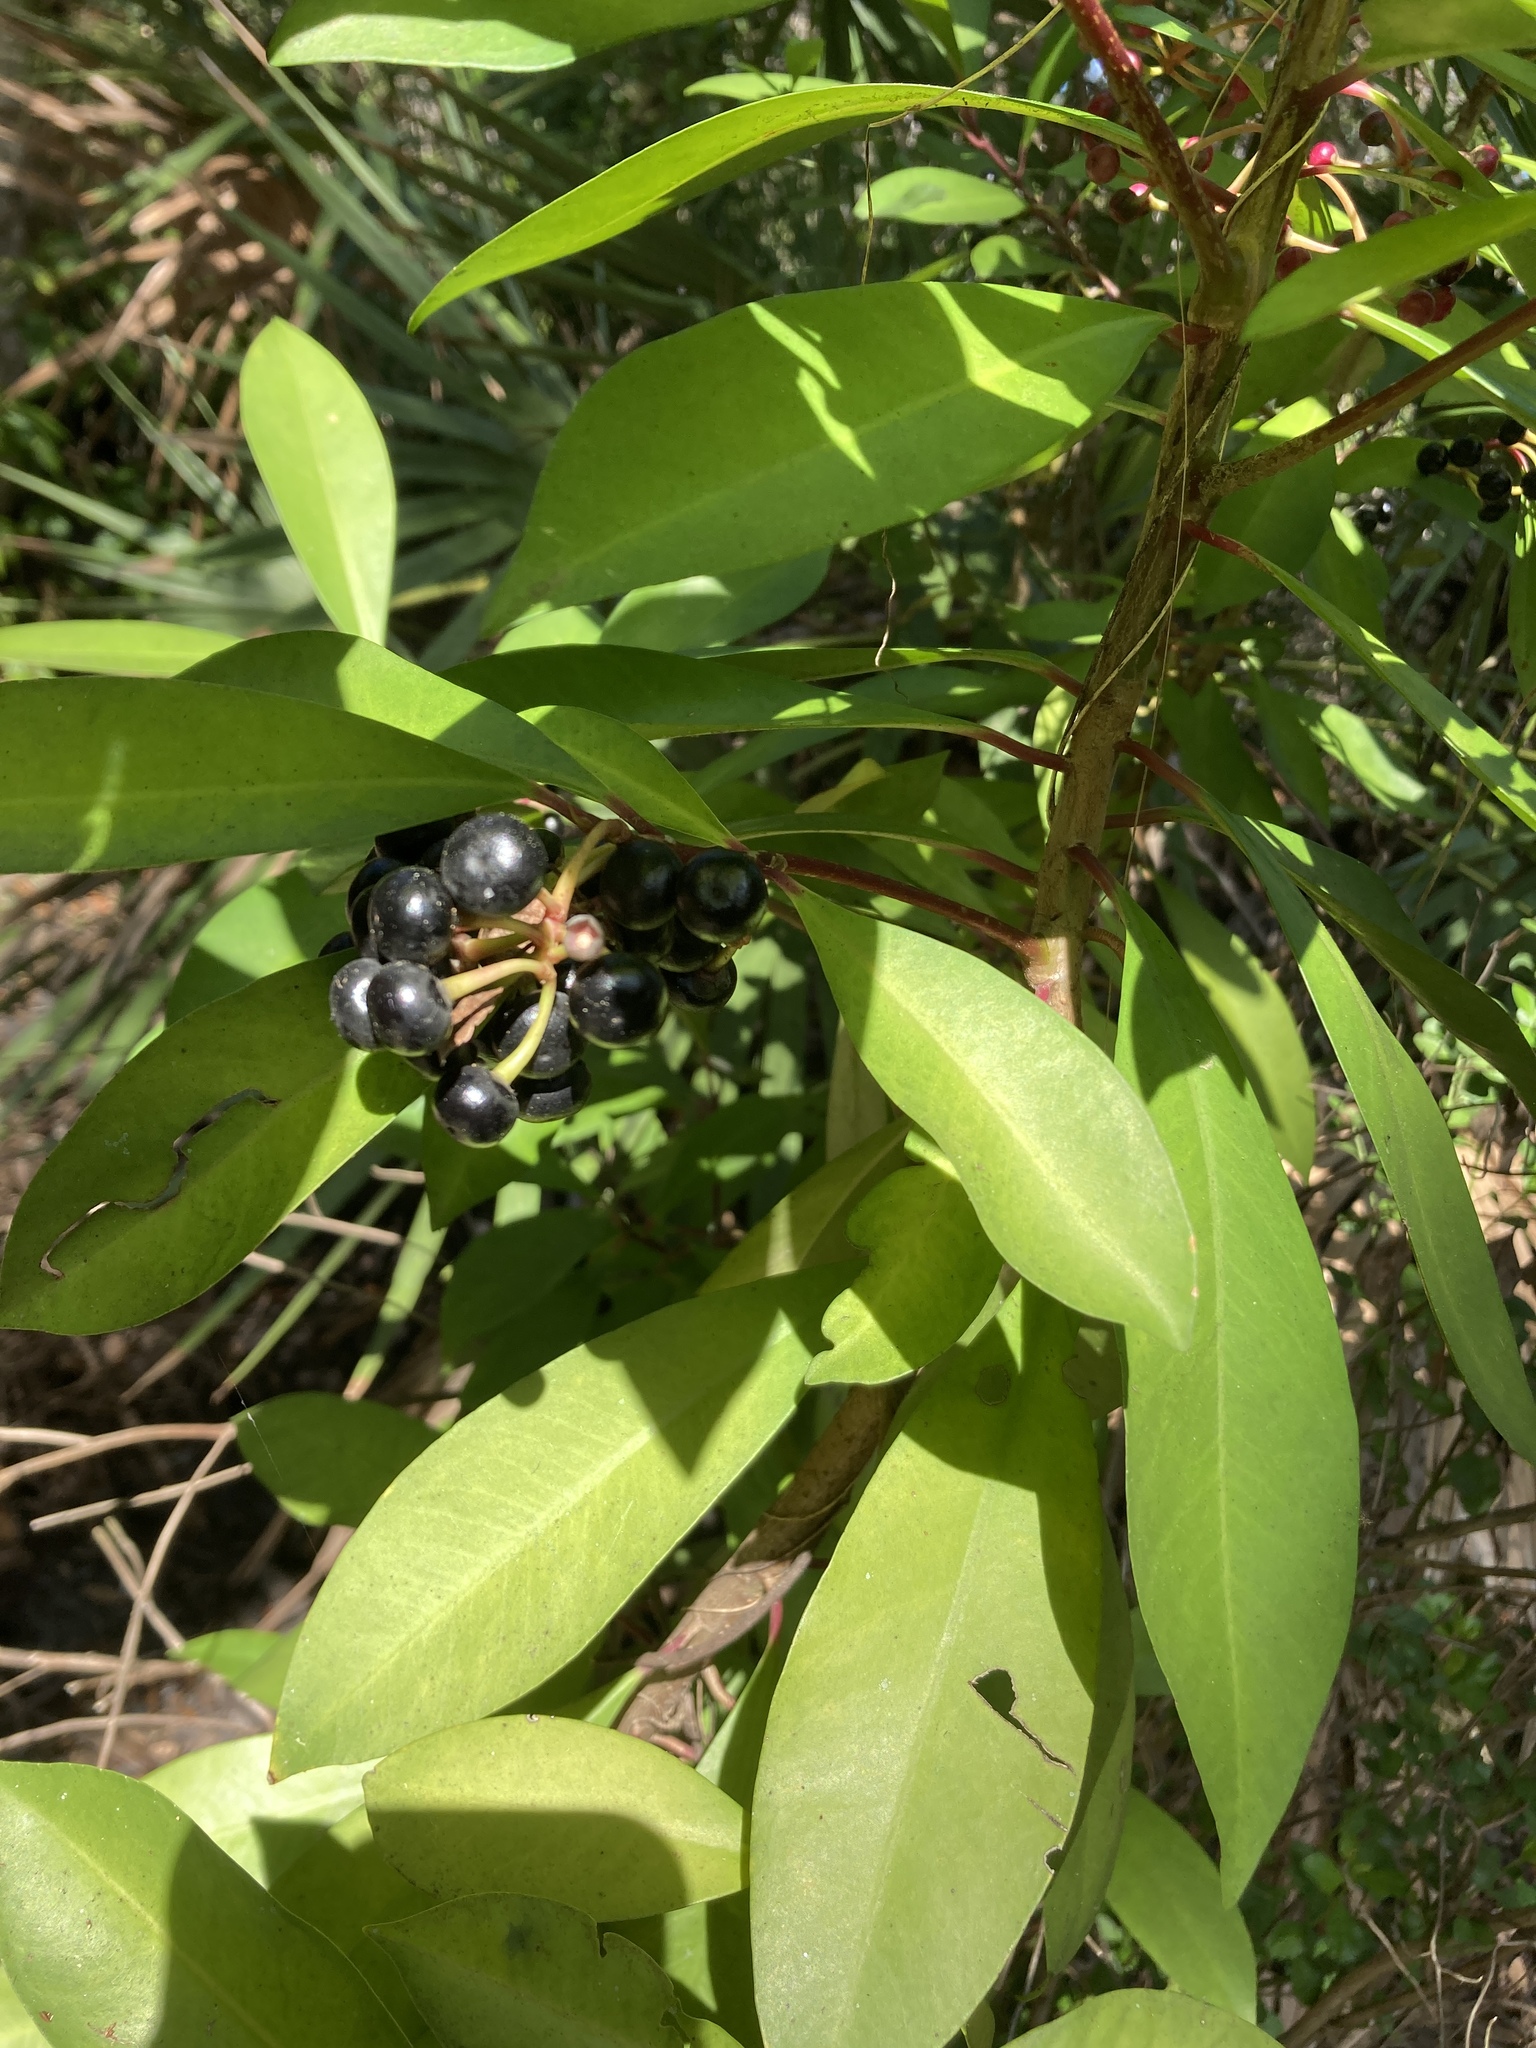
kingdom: Plantae
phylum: Tracheophyta
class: Magnoliopsida
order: Ericales
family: Primulaceae
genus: Ardisia
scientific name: Ardisia elliptica
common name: Shoebutton
